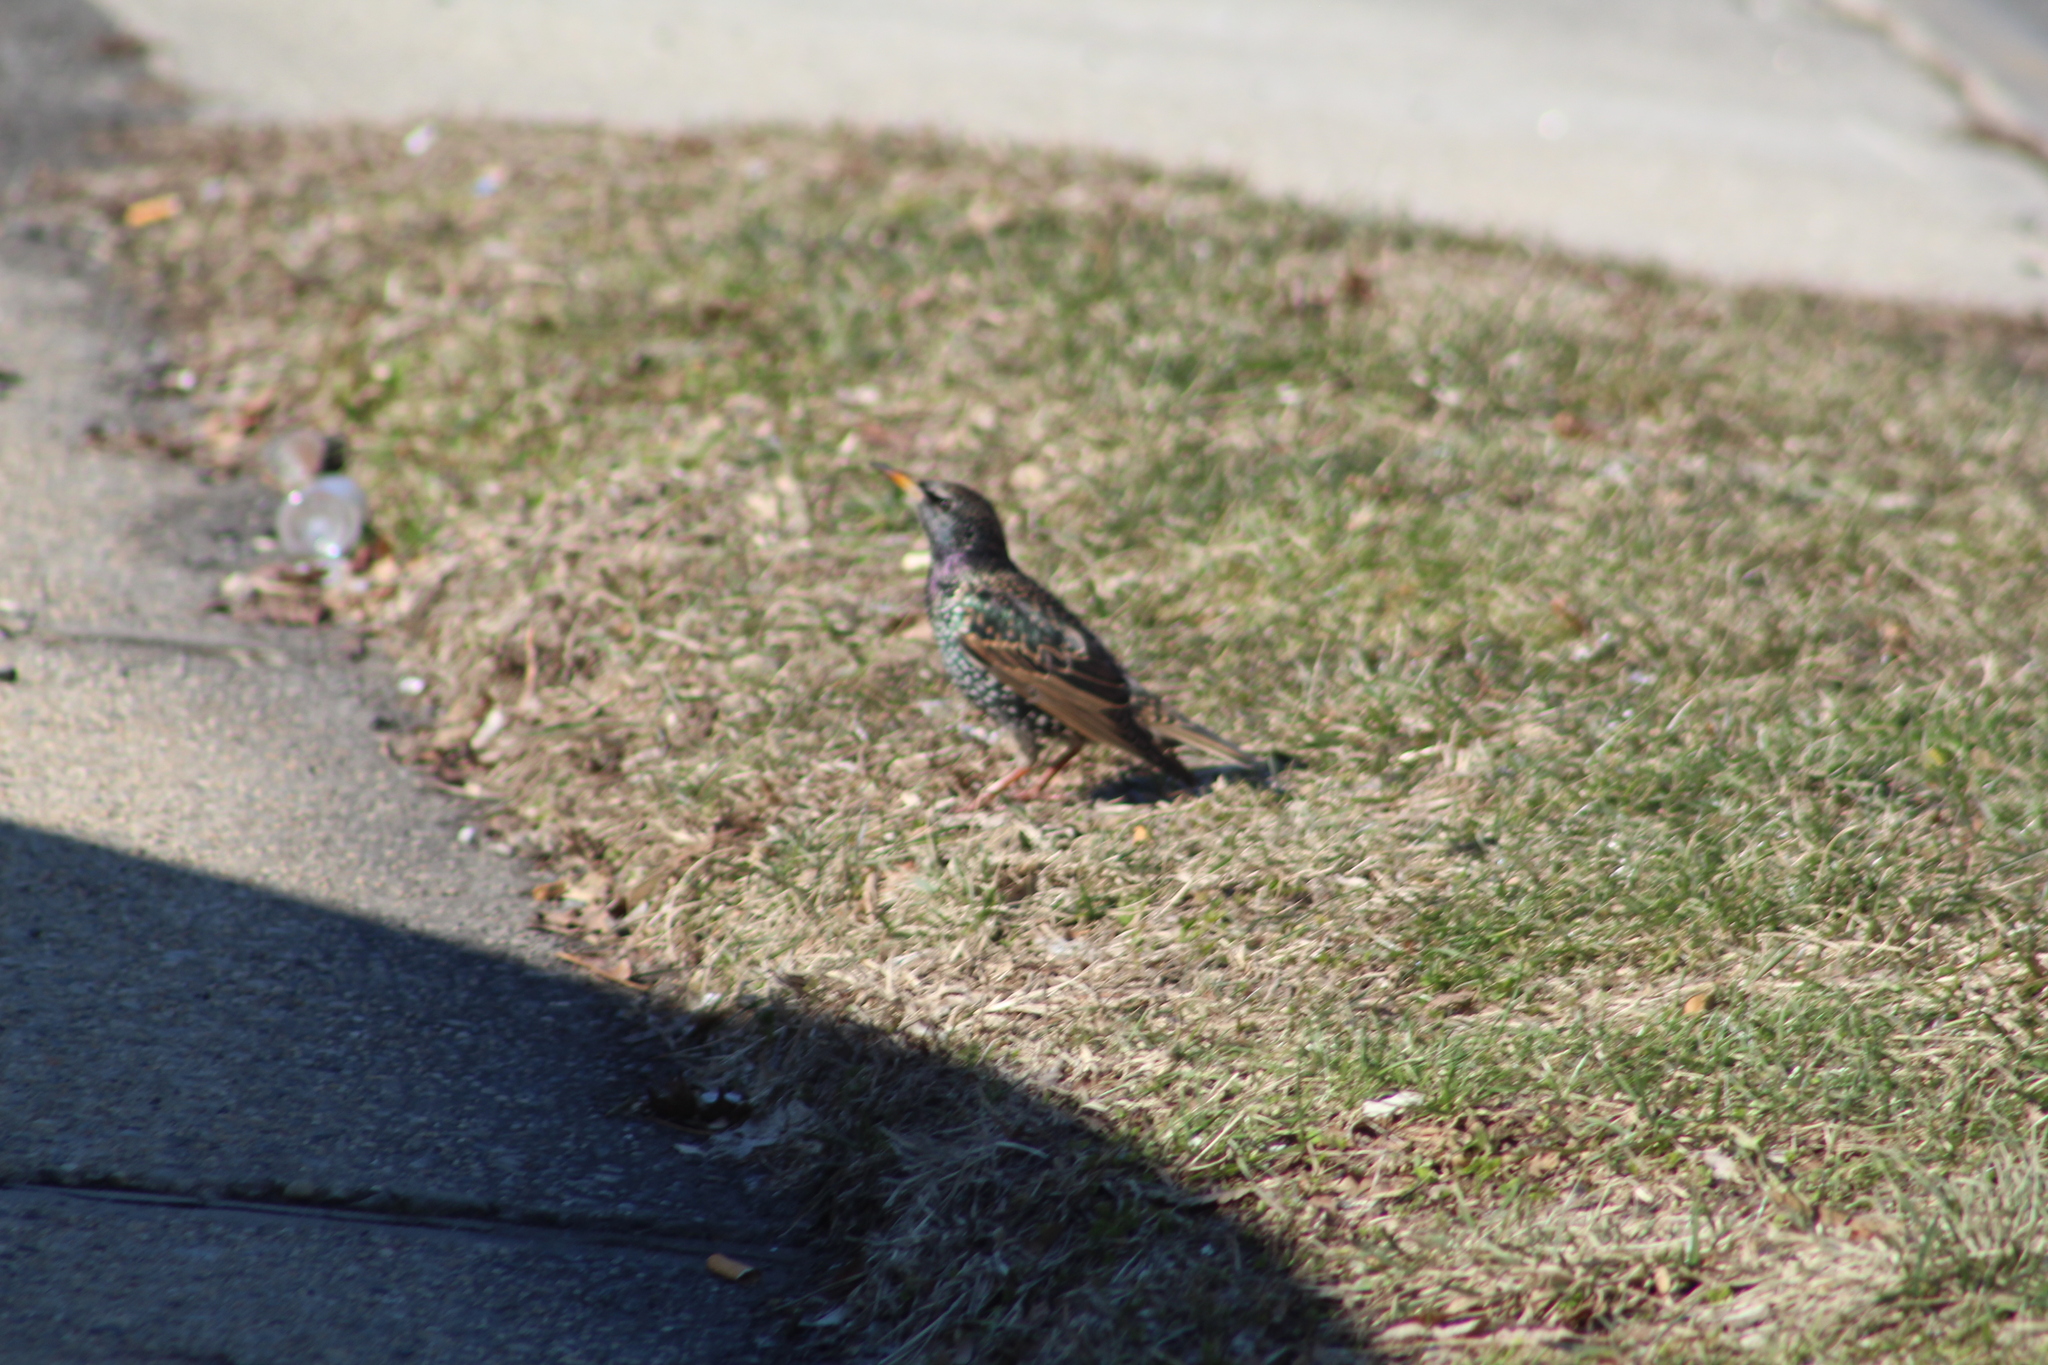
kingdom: Animalia
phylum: Chordata
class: Aves
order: Passeriformes
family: Sturnidae
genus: Sturnus
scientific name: Sturnus vulgaris
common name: Common starling
